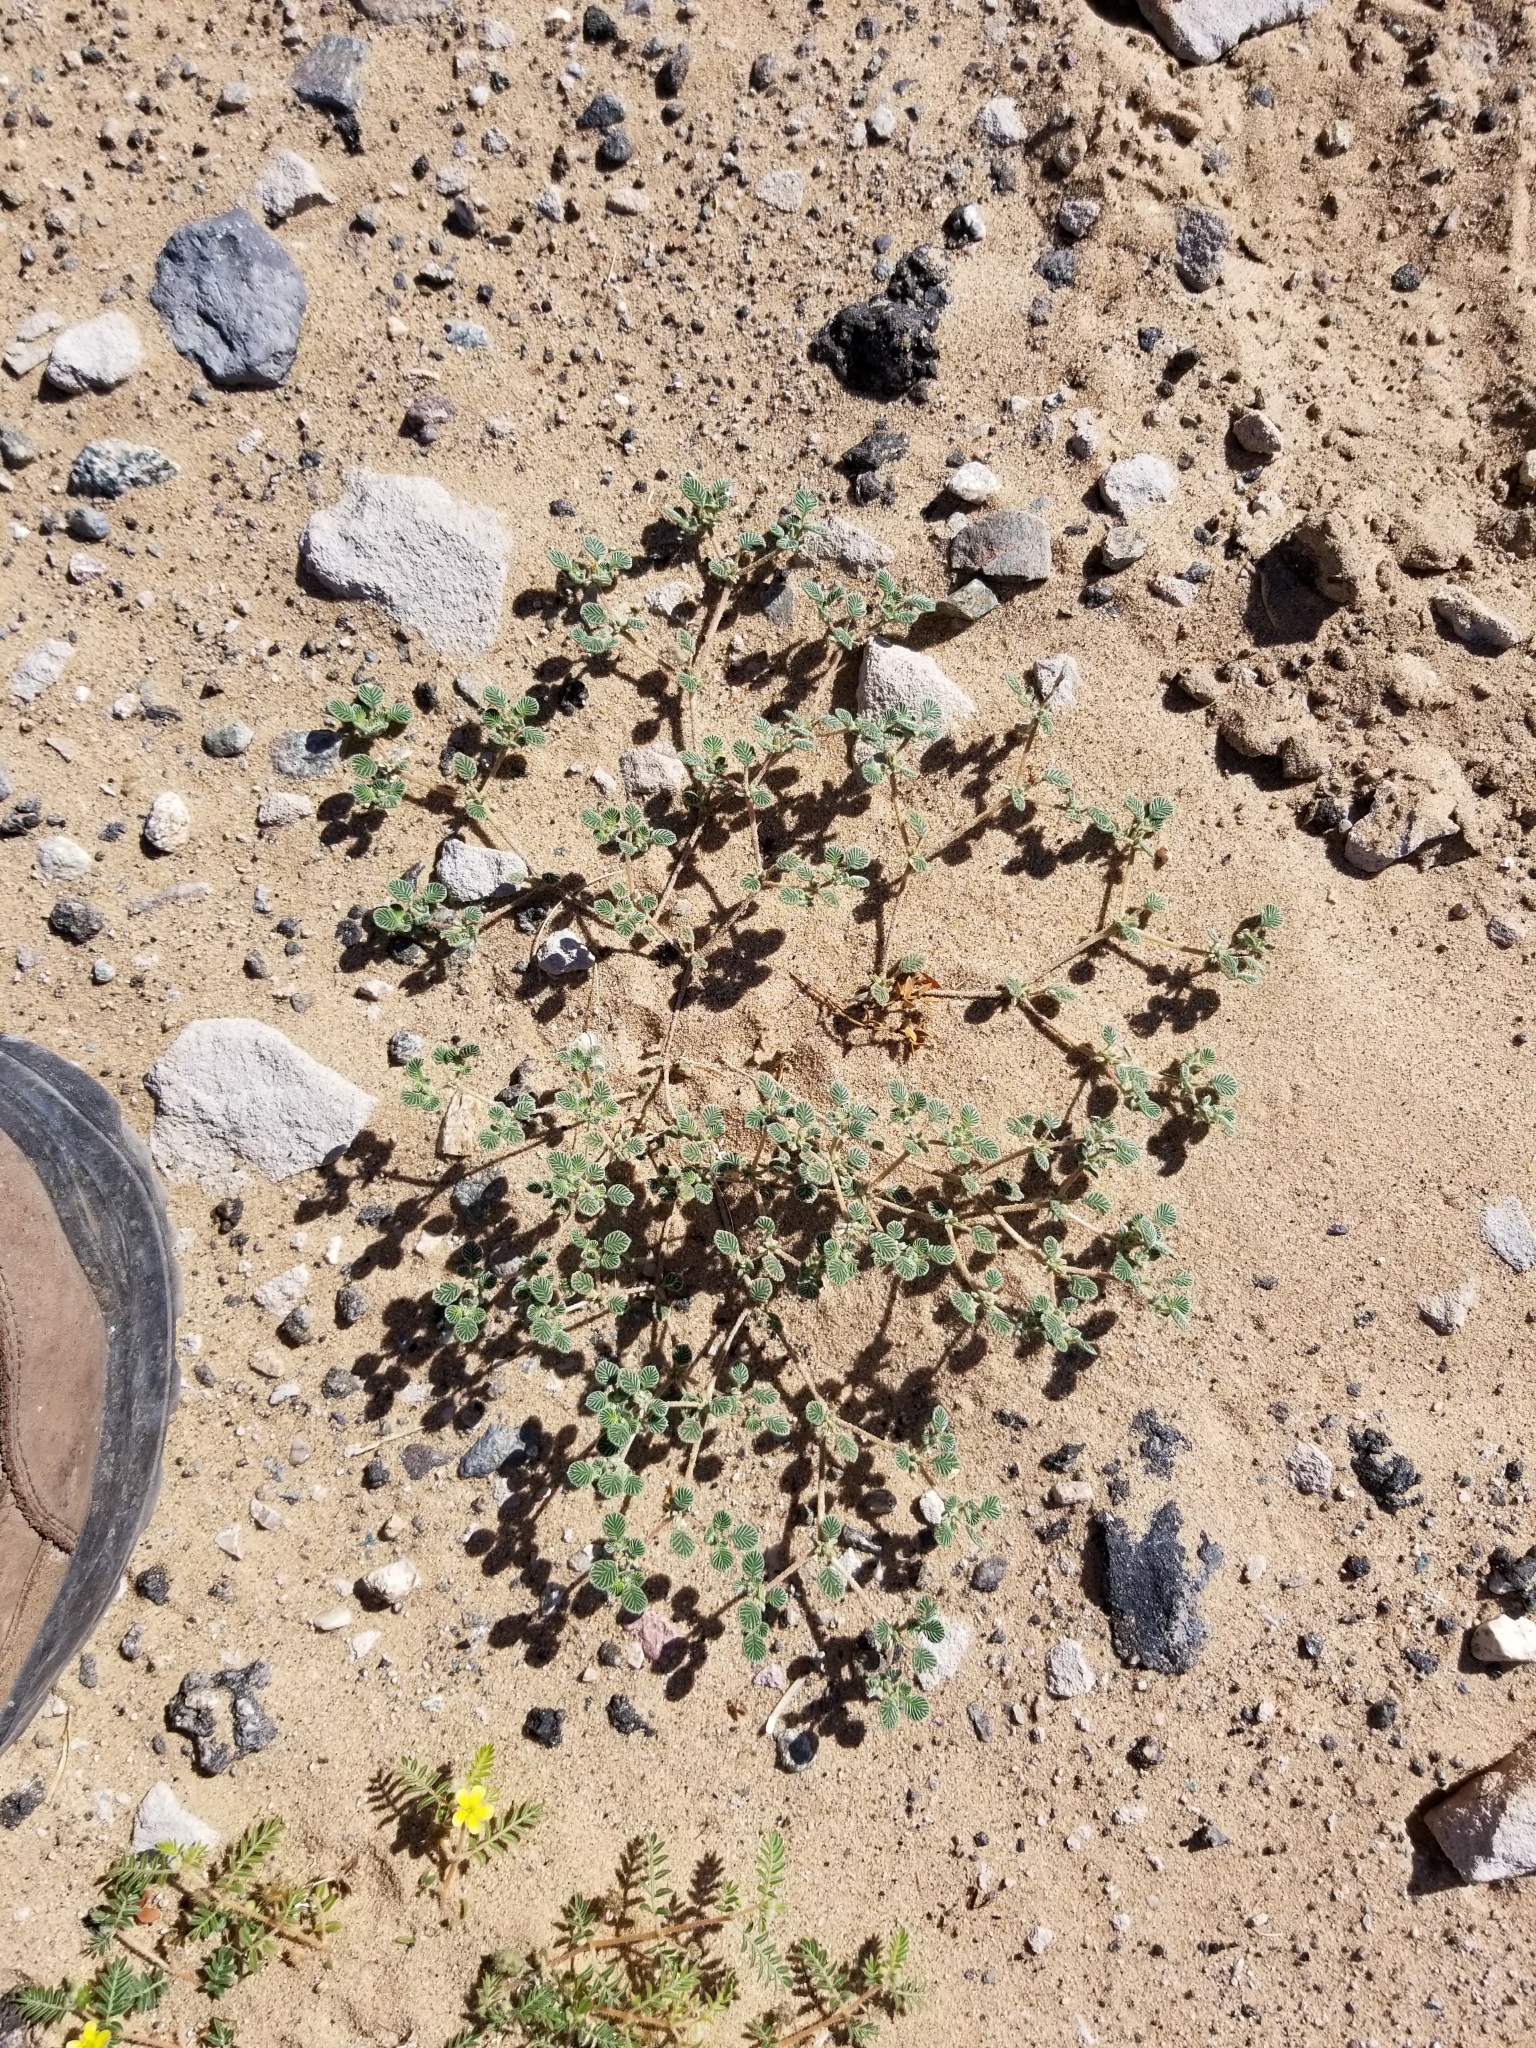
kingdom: Plantae
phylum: Tracheophyta
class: Magnoliopsida
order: Boraginales
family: Ehretiaceae
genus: Tiquilia
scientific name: Tiquilia plicata
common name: Fan-leaf tiquilia
